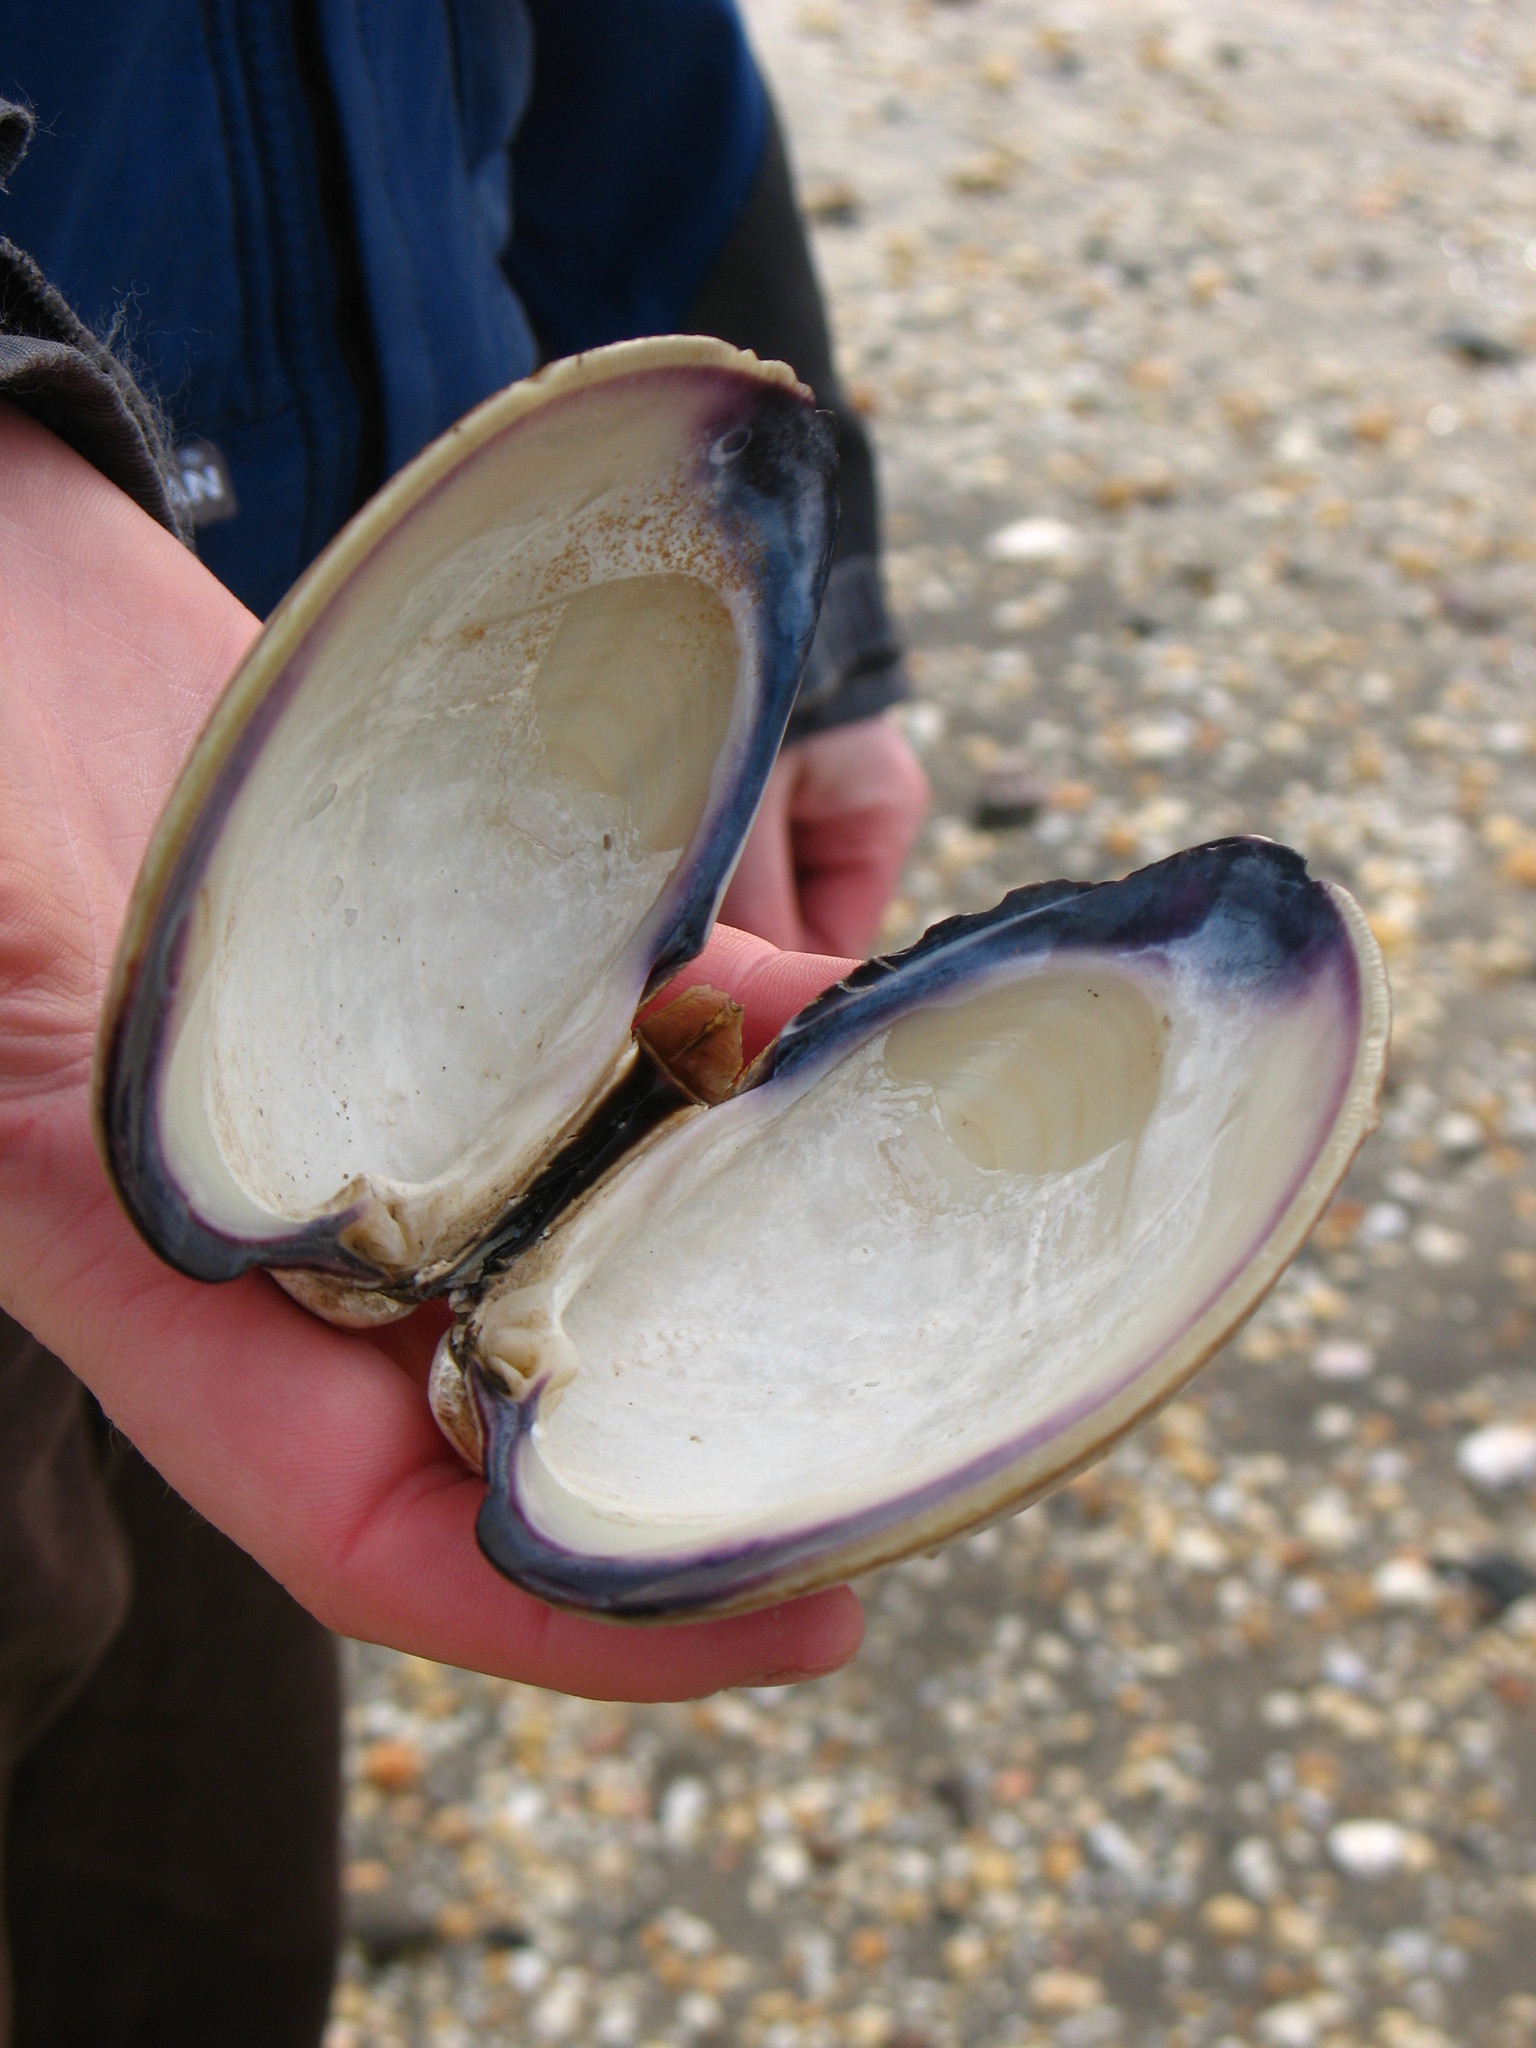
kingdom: Animalia
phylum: Mollusca
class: Bivalvia
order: Venerida
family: Veneridae
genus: Mercenaria
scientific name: Mercenaria mercenaria
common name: American hard-shelled clam
